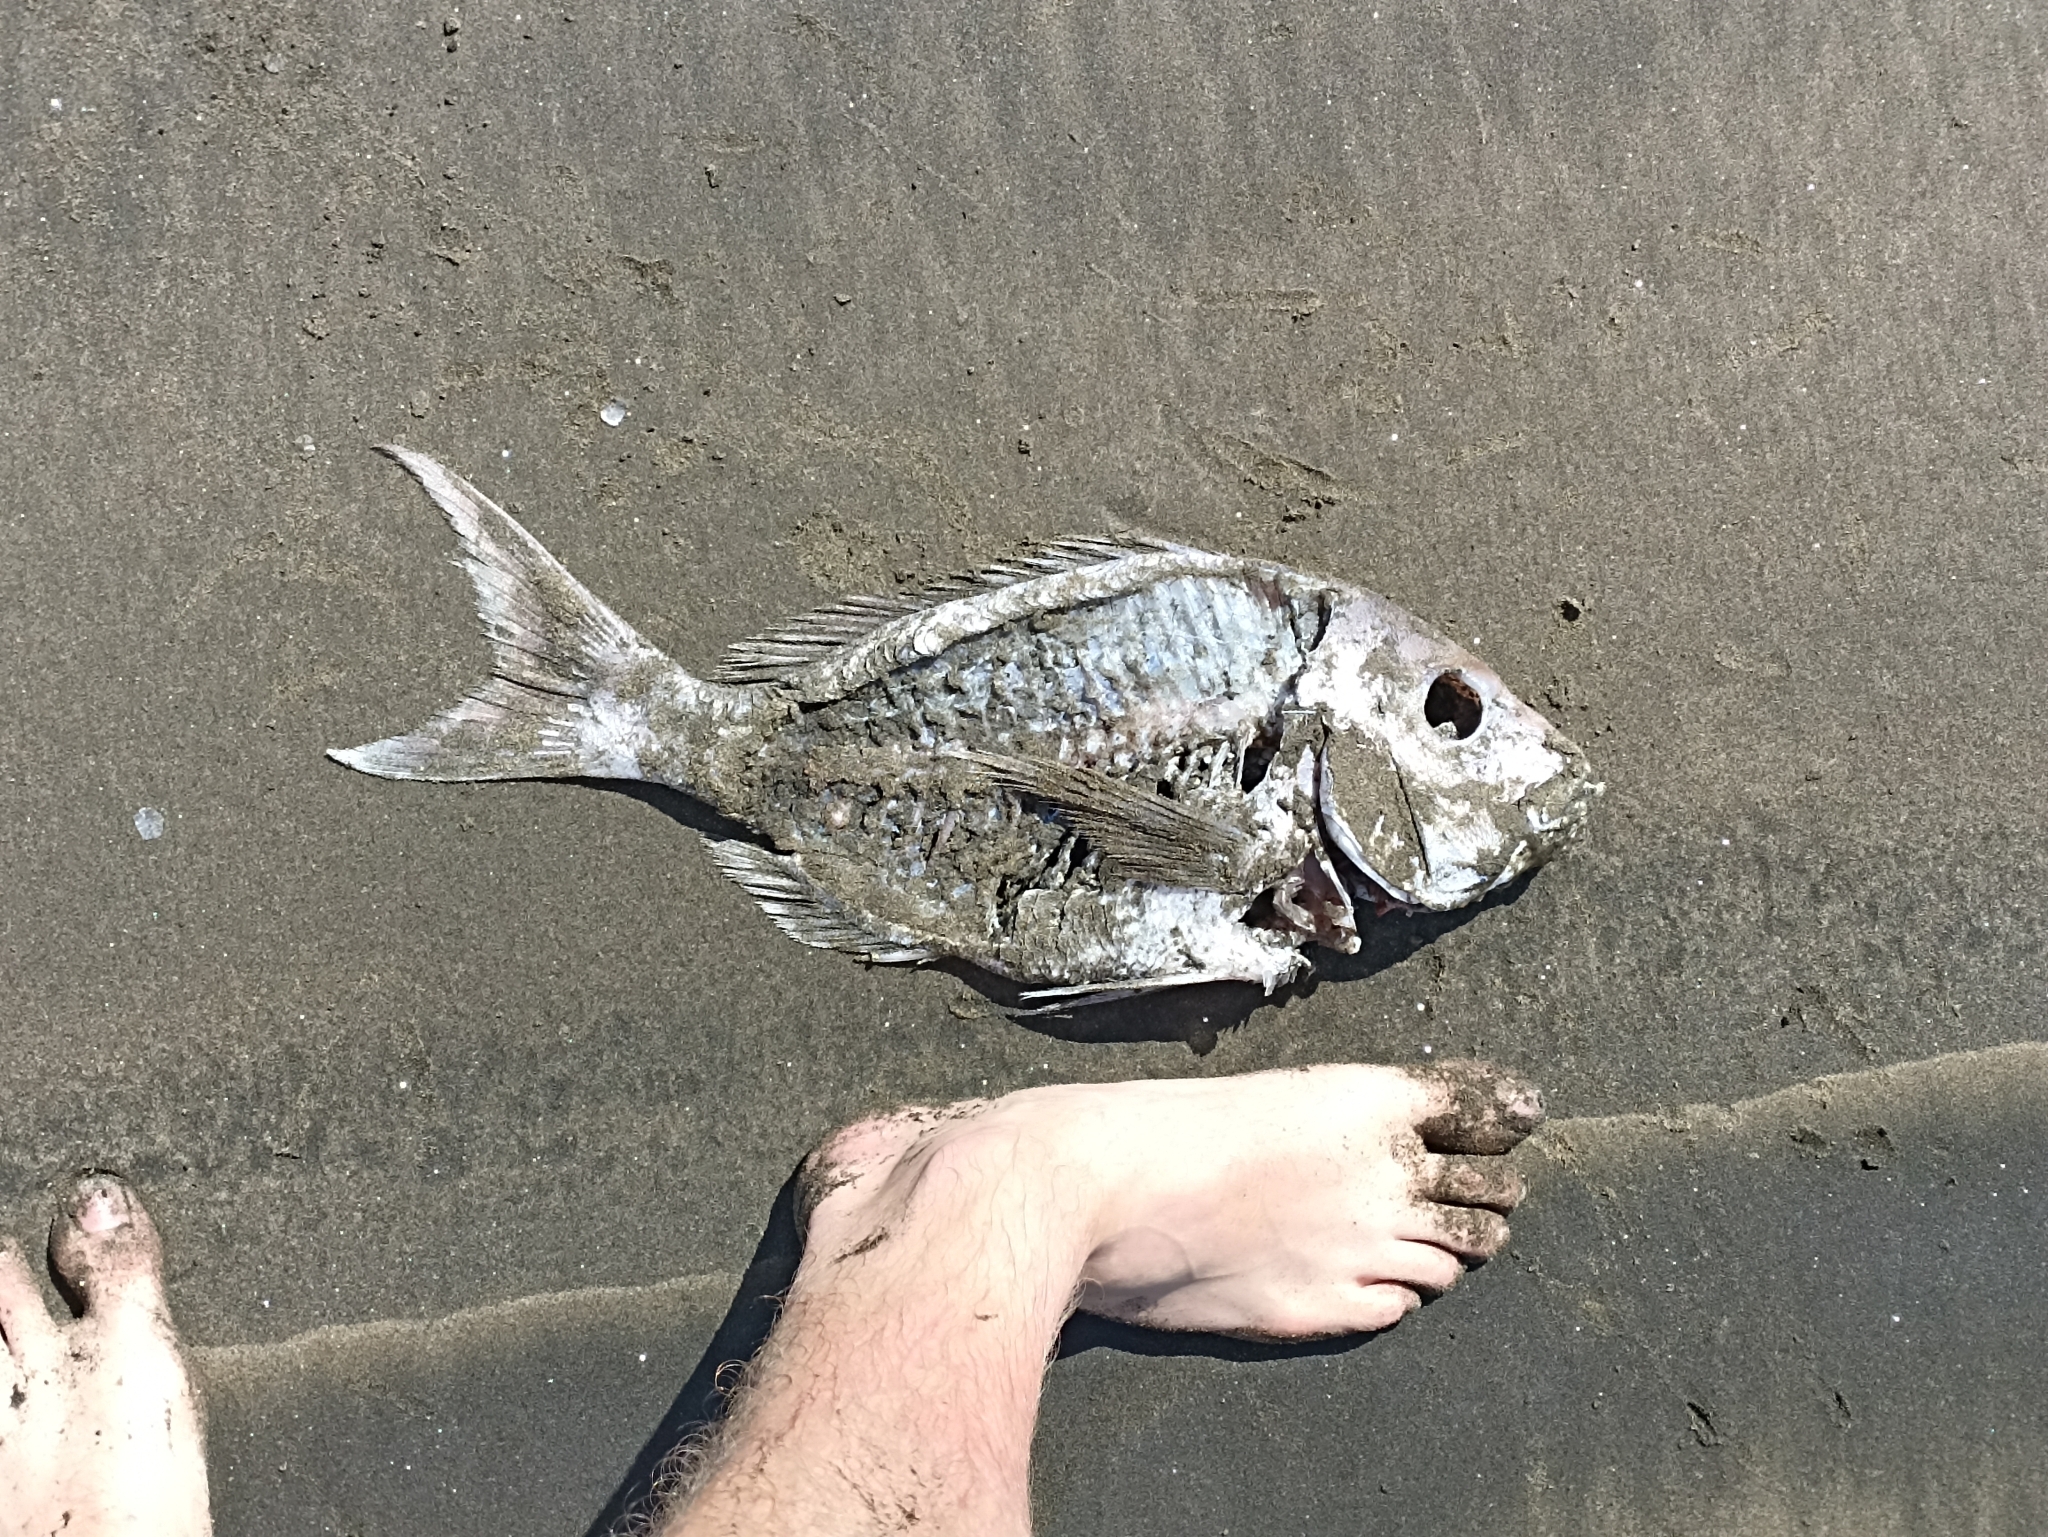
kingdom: Animalia
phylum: Chordata
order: Perciformes
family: Sparidae
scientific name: Sparidae
